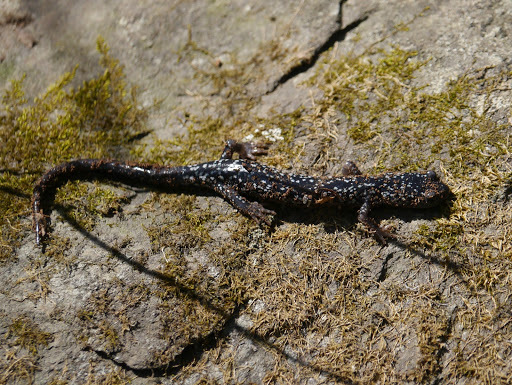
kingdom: Animalia
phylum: Chordata
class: Amphibia
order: Caudata
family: Plethodontidae
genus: Plethodon
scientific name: Plethodon cylindraceus
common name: White-spotted slimy salamander
